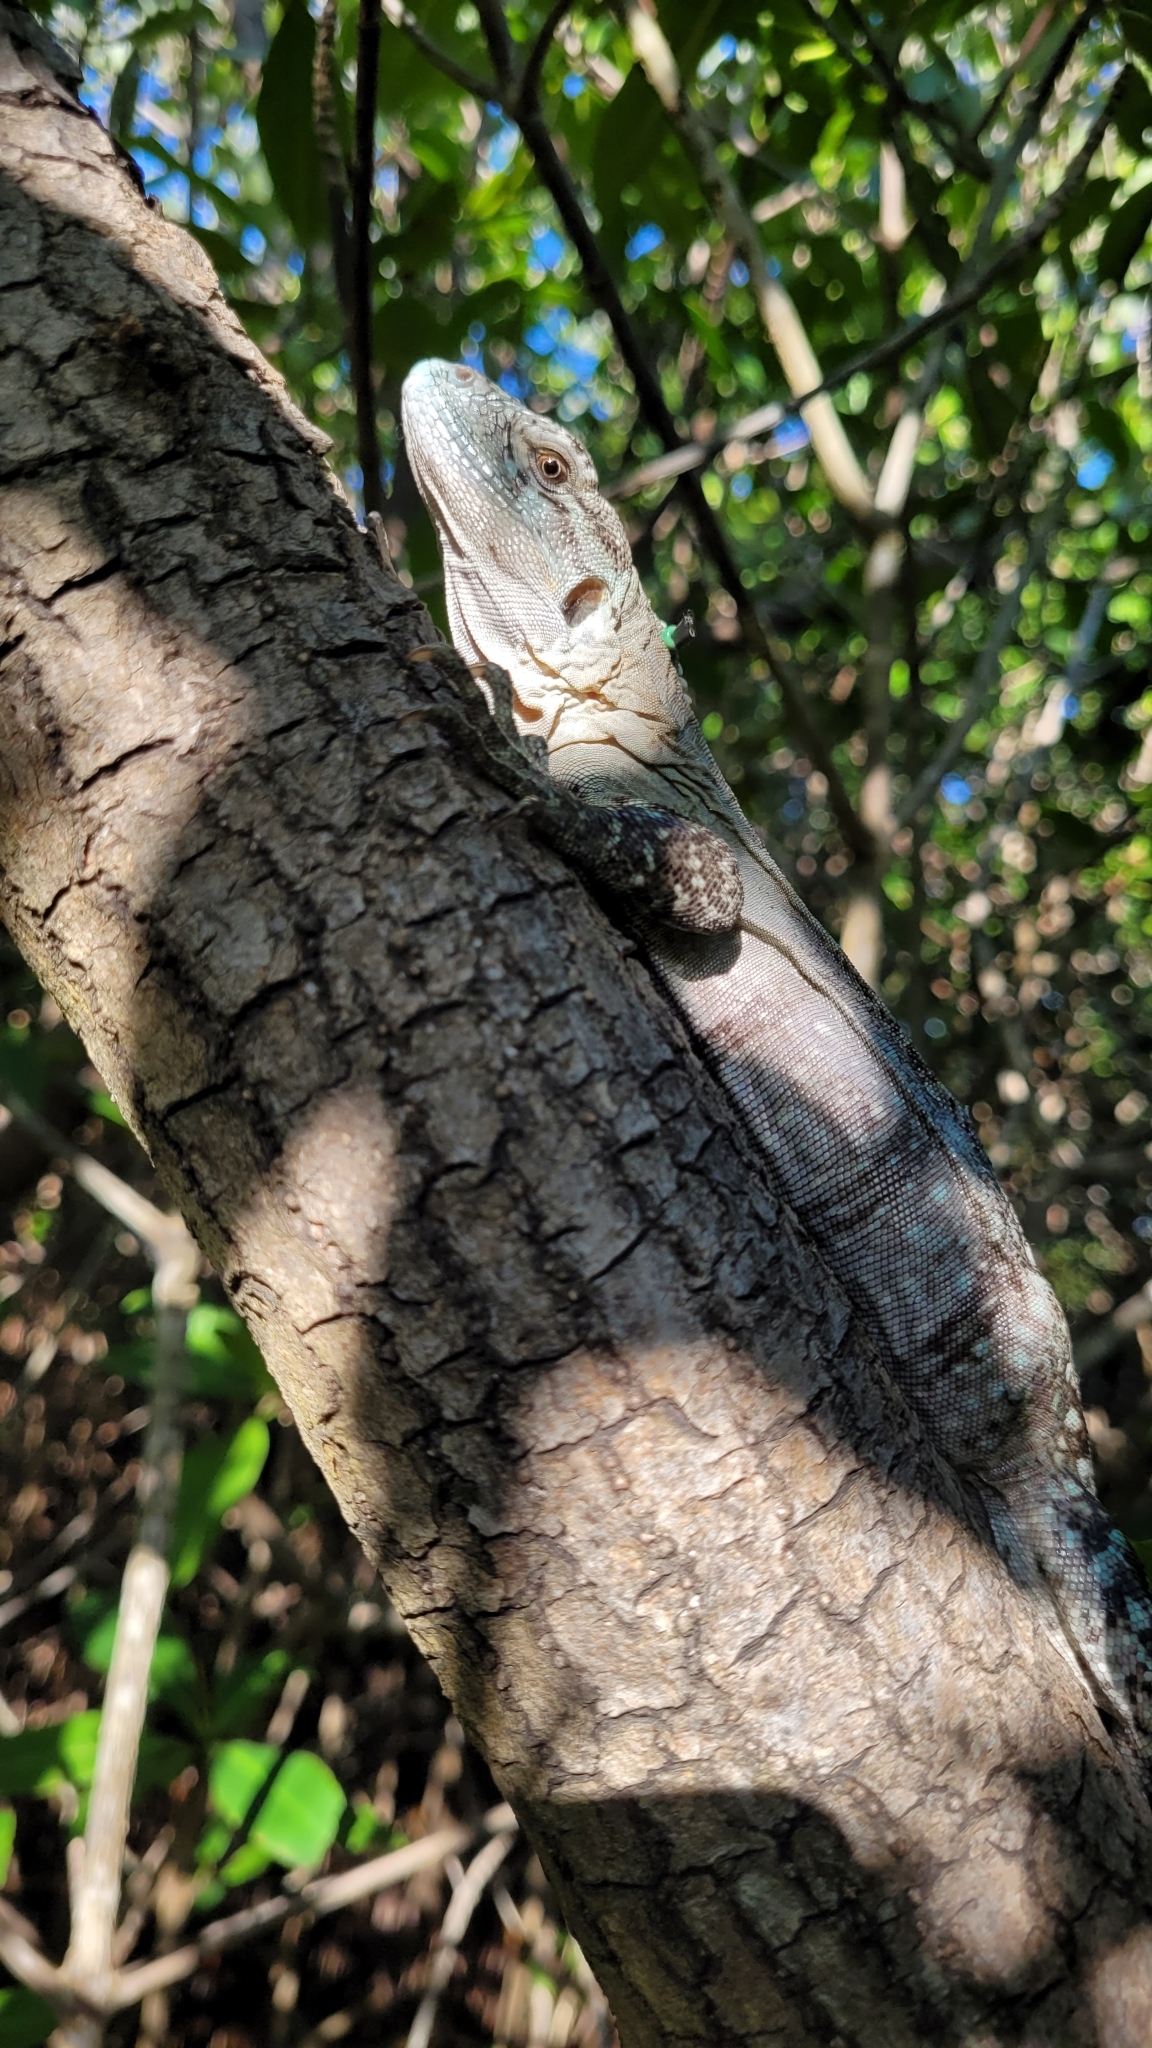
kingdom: Animalia
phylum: Chordata
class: Squamata
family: Iguanidae
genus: Ctenosaura
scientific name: Ctenosaura bakeri
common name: Utila spiny-tailed iguana
